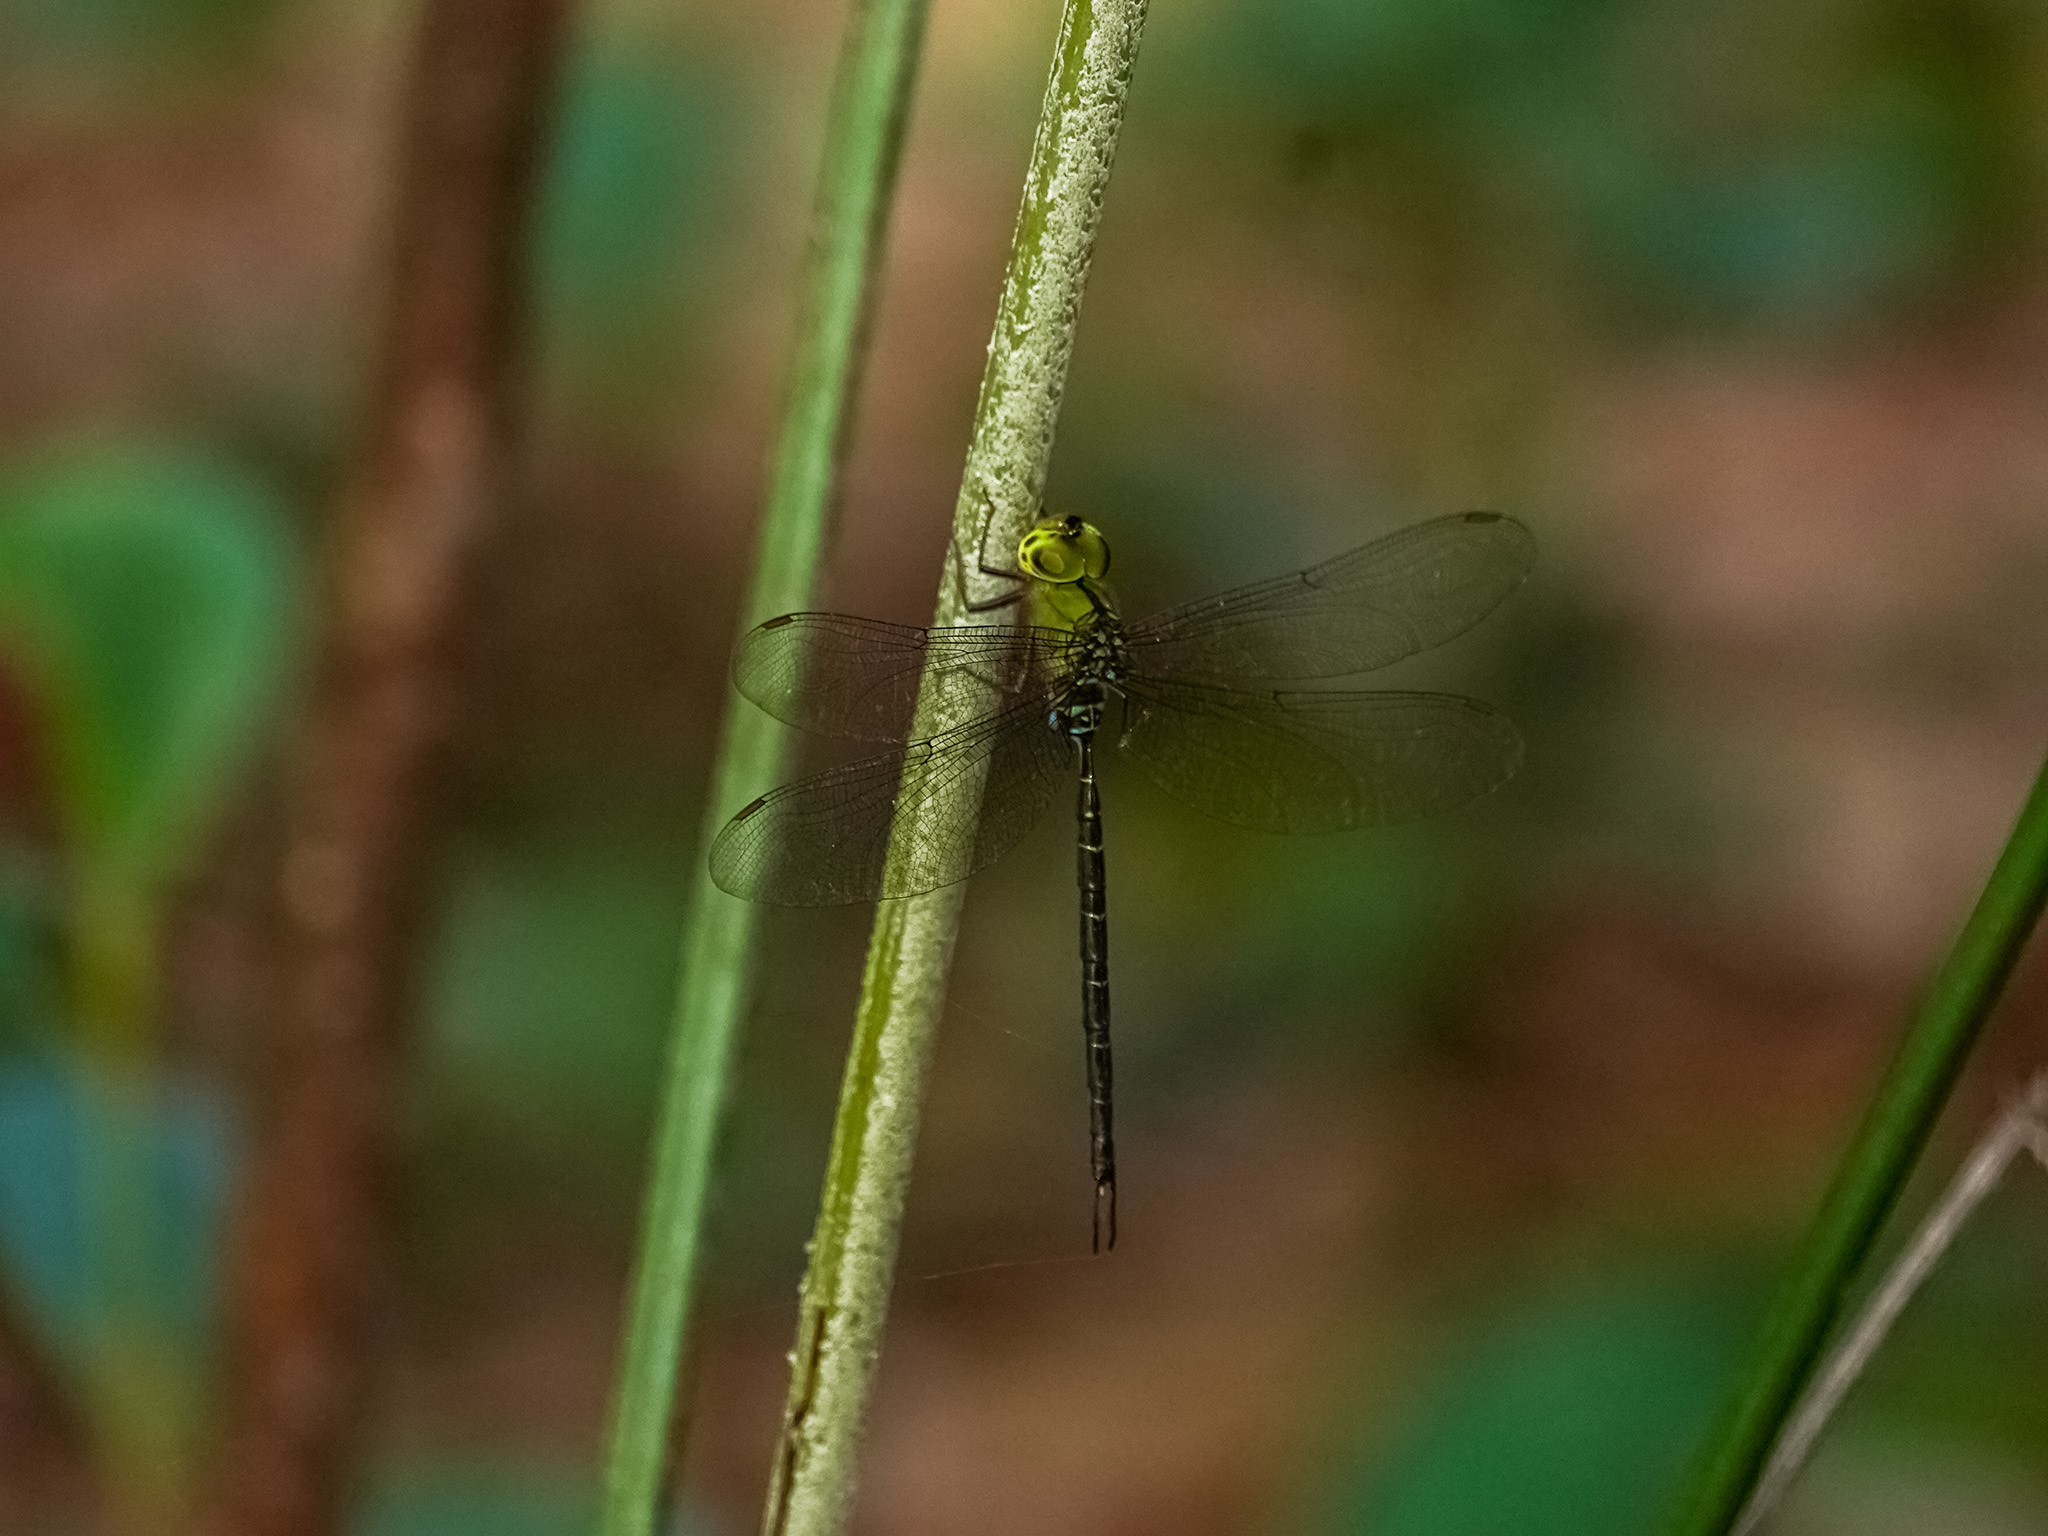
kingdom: Animalia
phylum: Arthropoda
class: Insecta
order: Odonata
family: Aeshnidae
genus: Gynacantha
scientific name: Gynacantha dohrni
